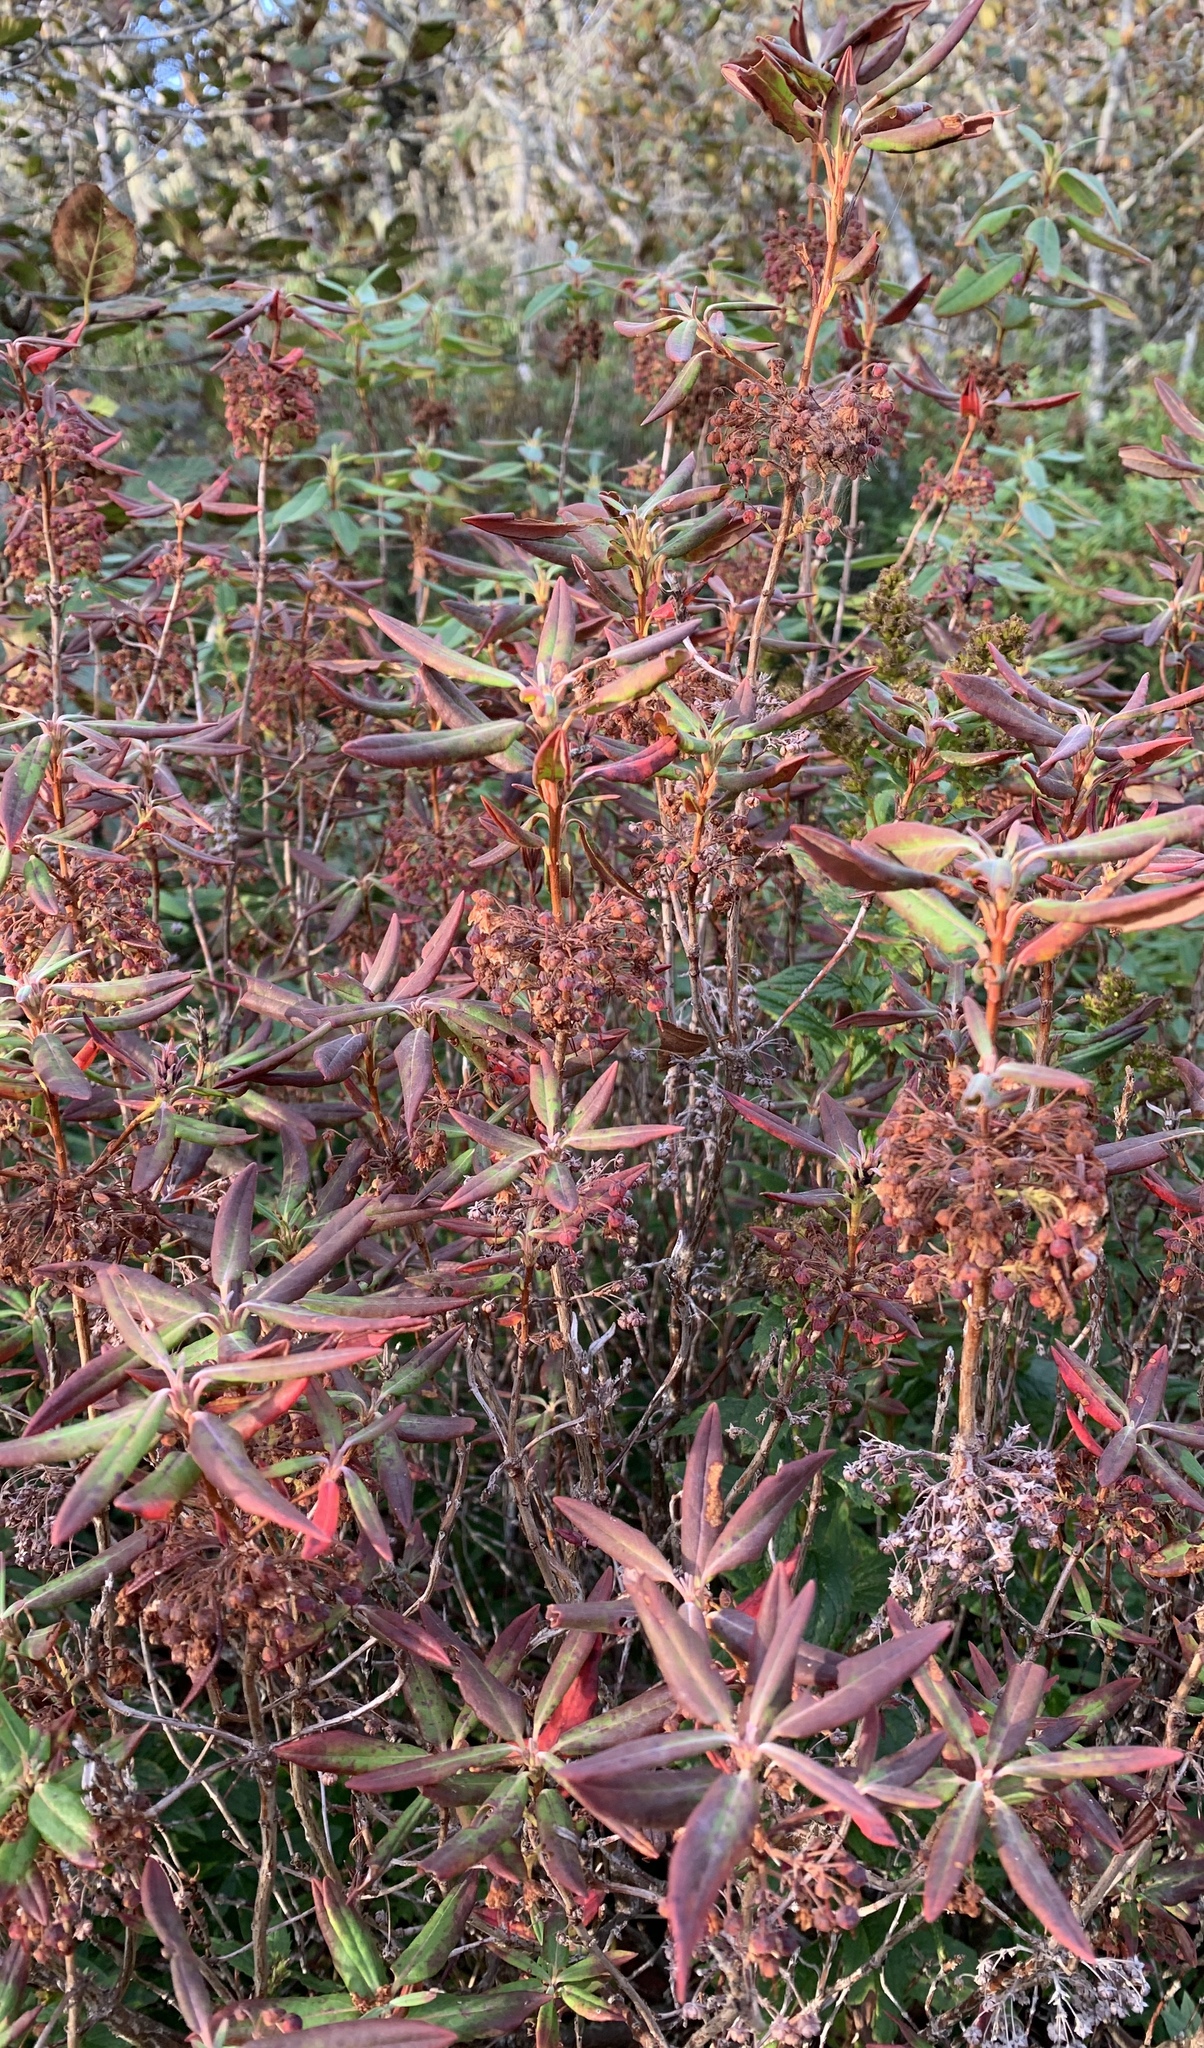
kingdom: Plantae
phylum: Tracheophyta
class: Magnoliopsida
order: Ericales
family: Ericaceae
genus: Rhododendron
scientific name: Rhododendron groenlandicum
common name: Bog labrador tea
